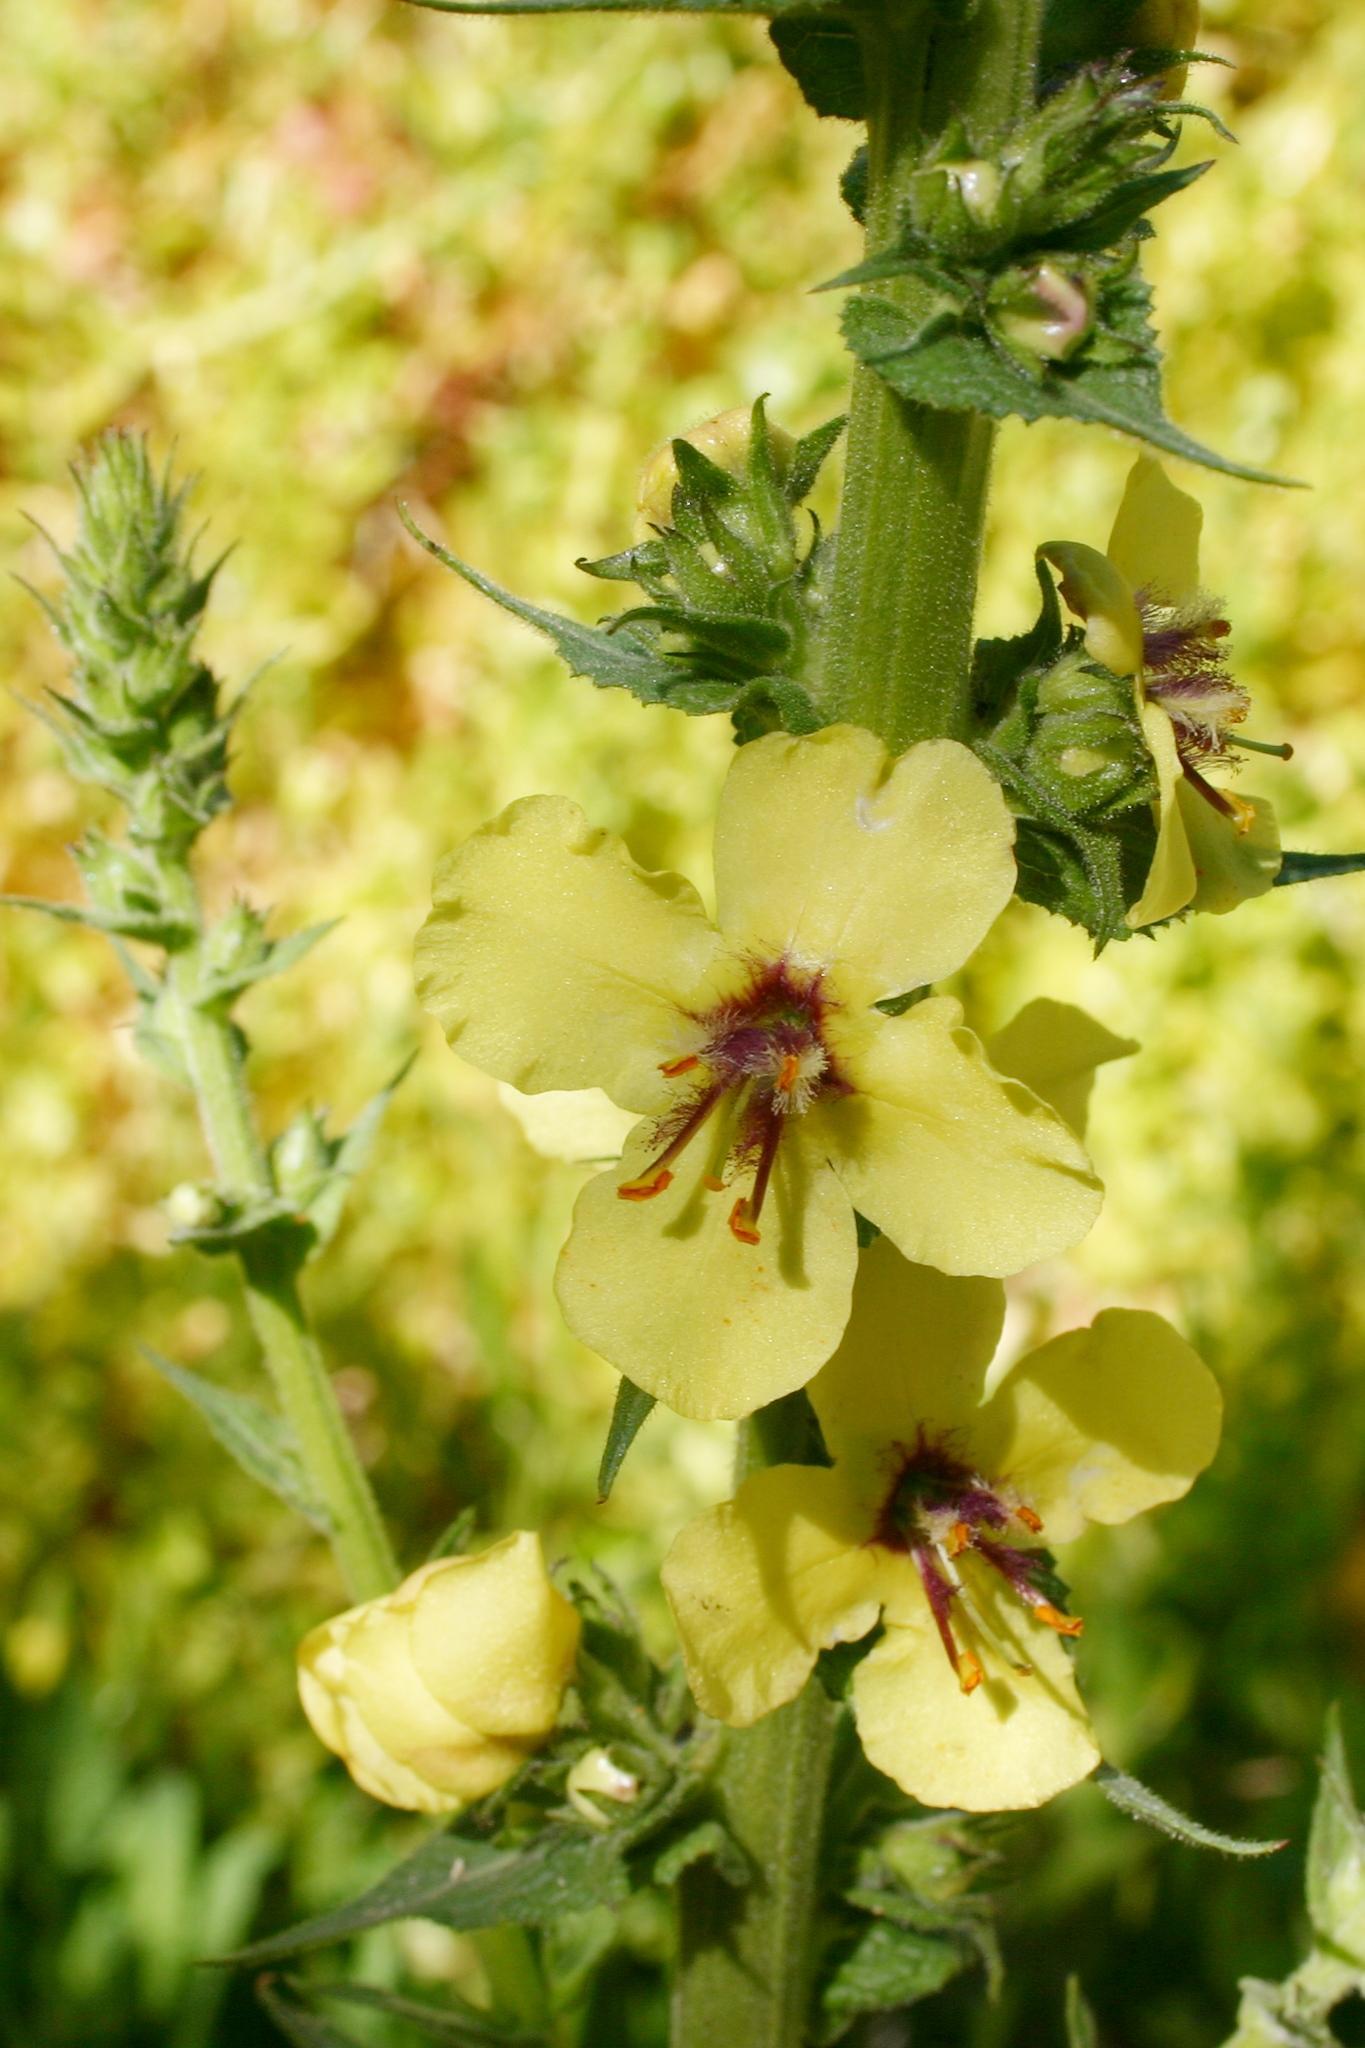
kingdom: Plantae
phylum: Tracheophyta
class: Magnoliopsida
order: Lamiales
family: Scrophulariaceae
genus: Verbascum
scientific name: Verbascum virgatum
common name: Twiggy mullein
